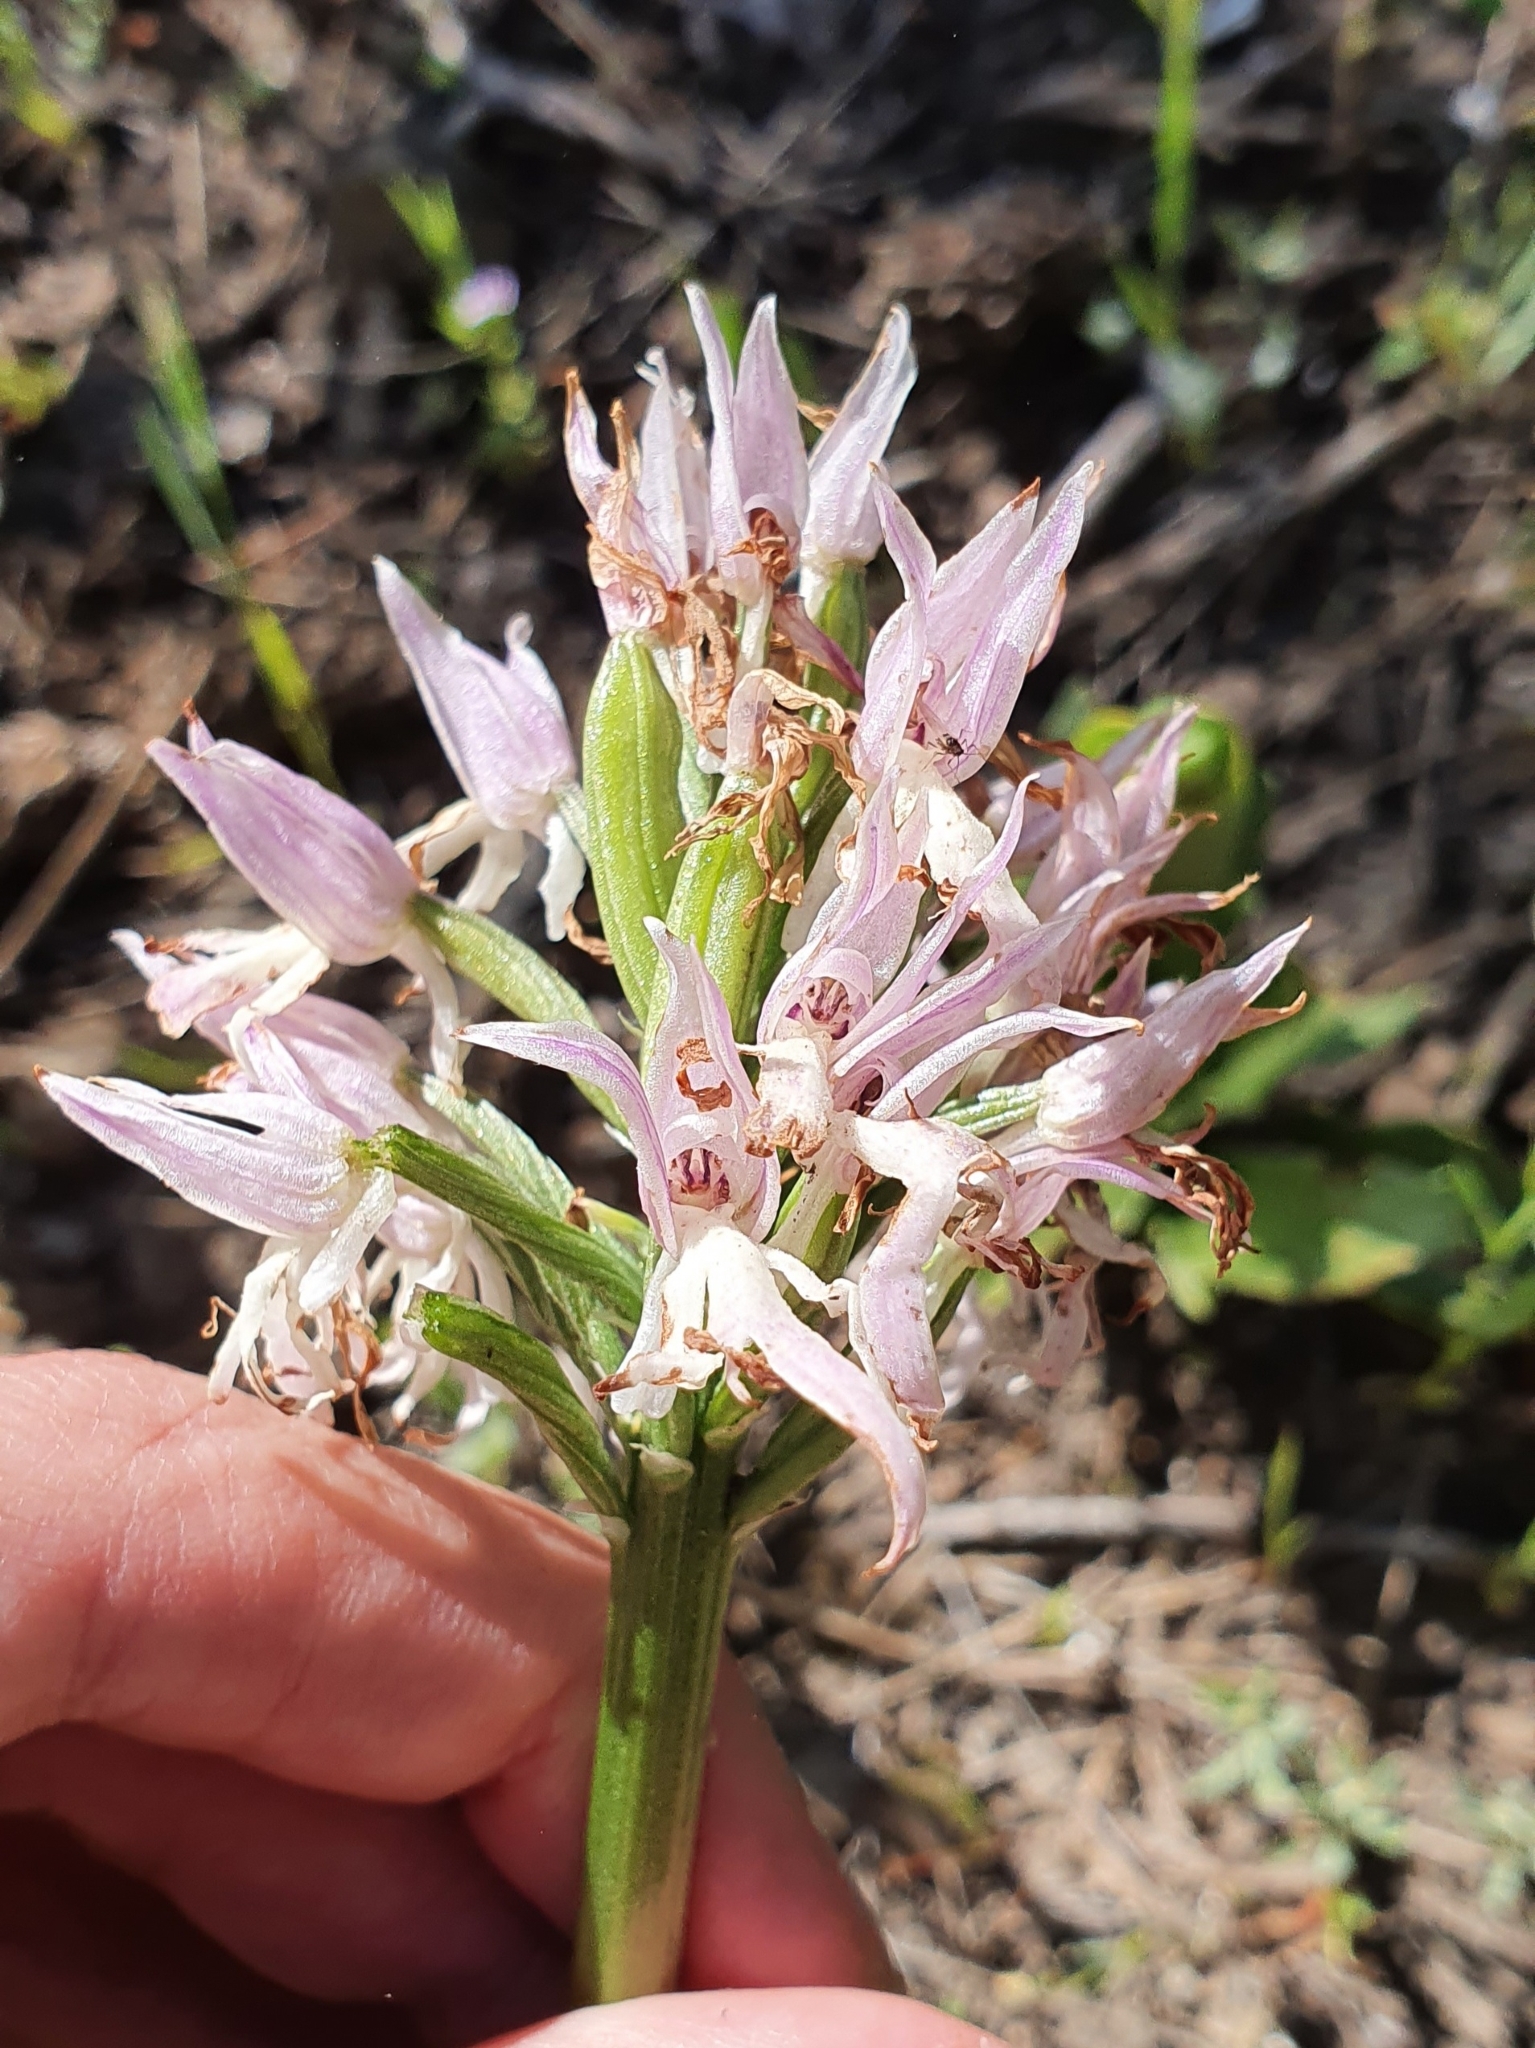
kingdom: Plantae
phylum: Tracheophyta
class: Liliopsida
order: Asparagales
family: Orchidaceae
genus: Orchis
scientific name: Orchis italica
